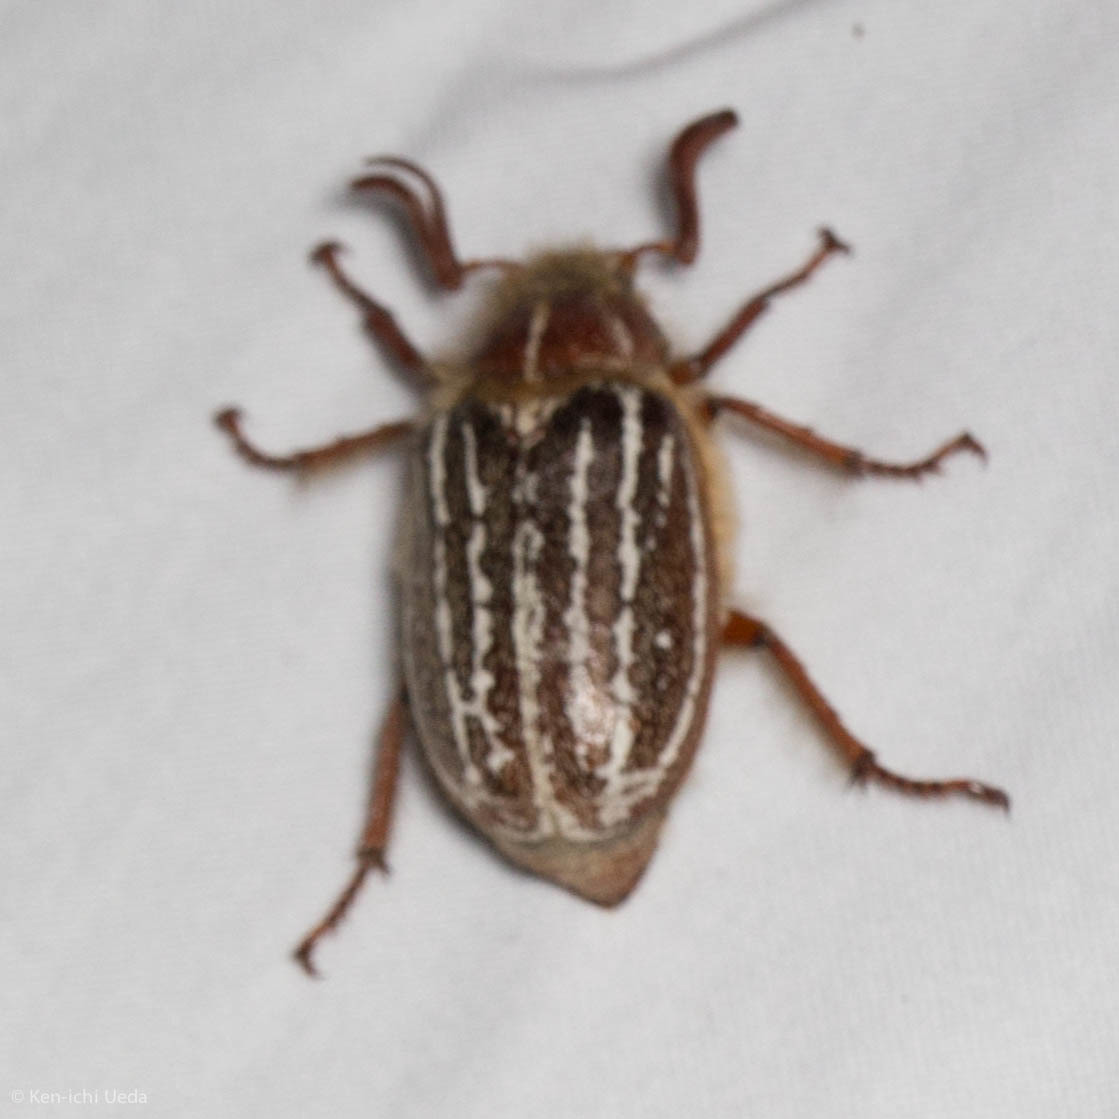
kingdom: Animalia
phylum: Arthropoda
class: Insecta
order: Coleoptera
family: Scarabaeidae
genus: Polyphylla
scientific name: Polyphylla barbata
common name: Mount hermon june beetle
